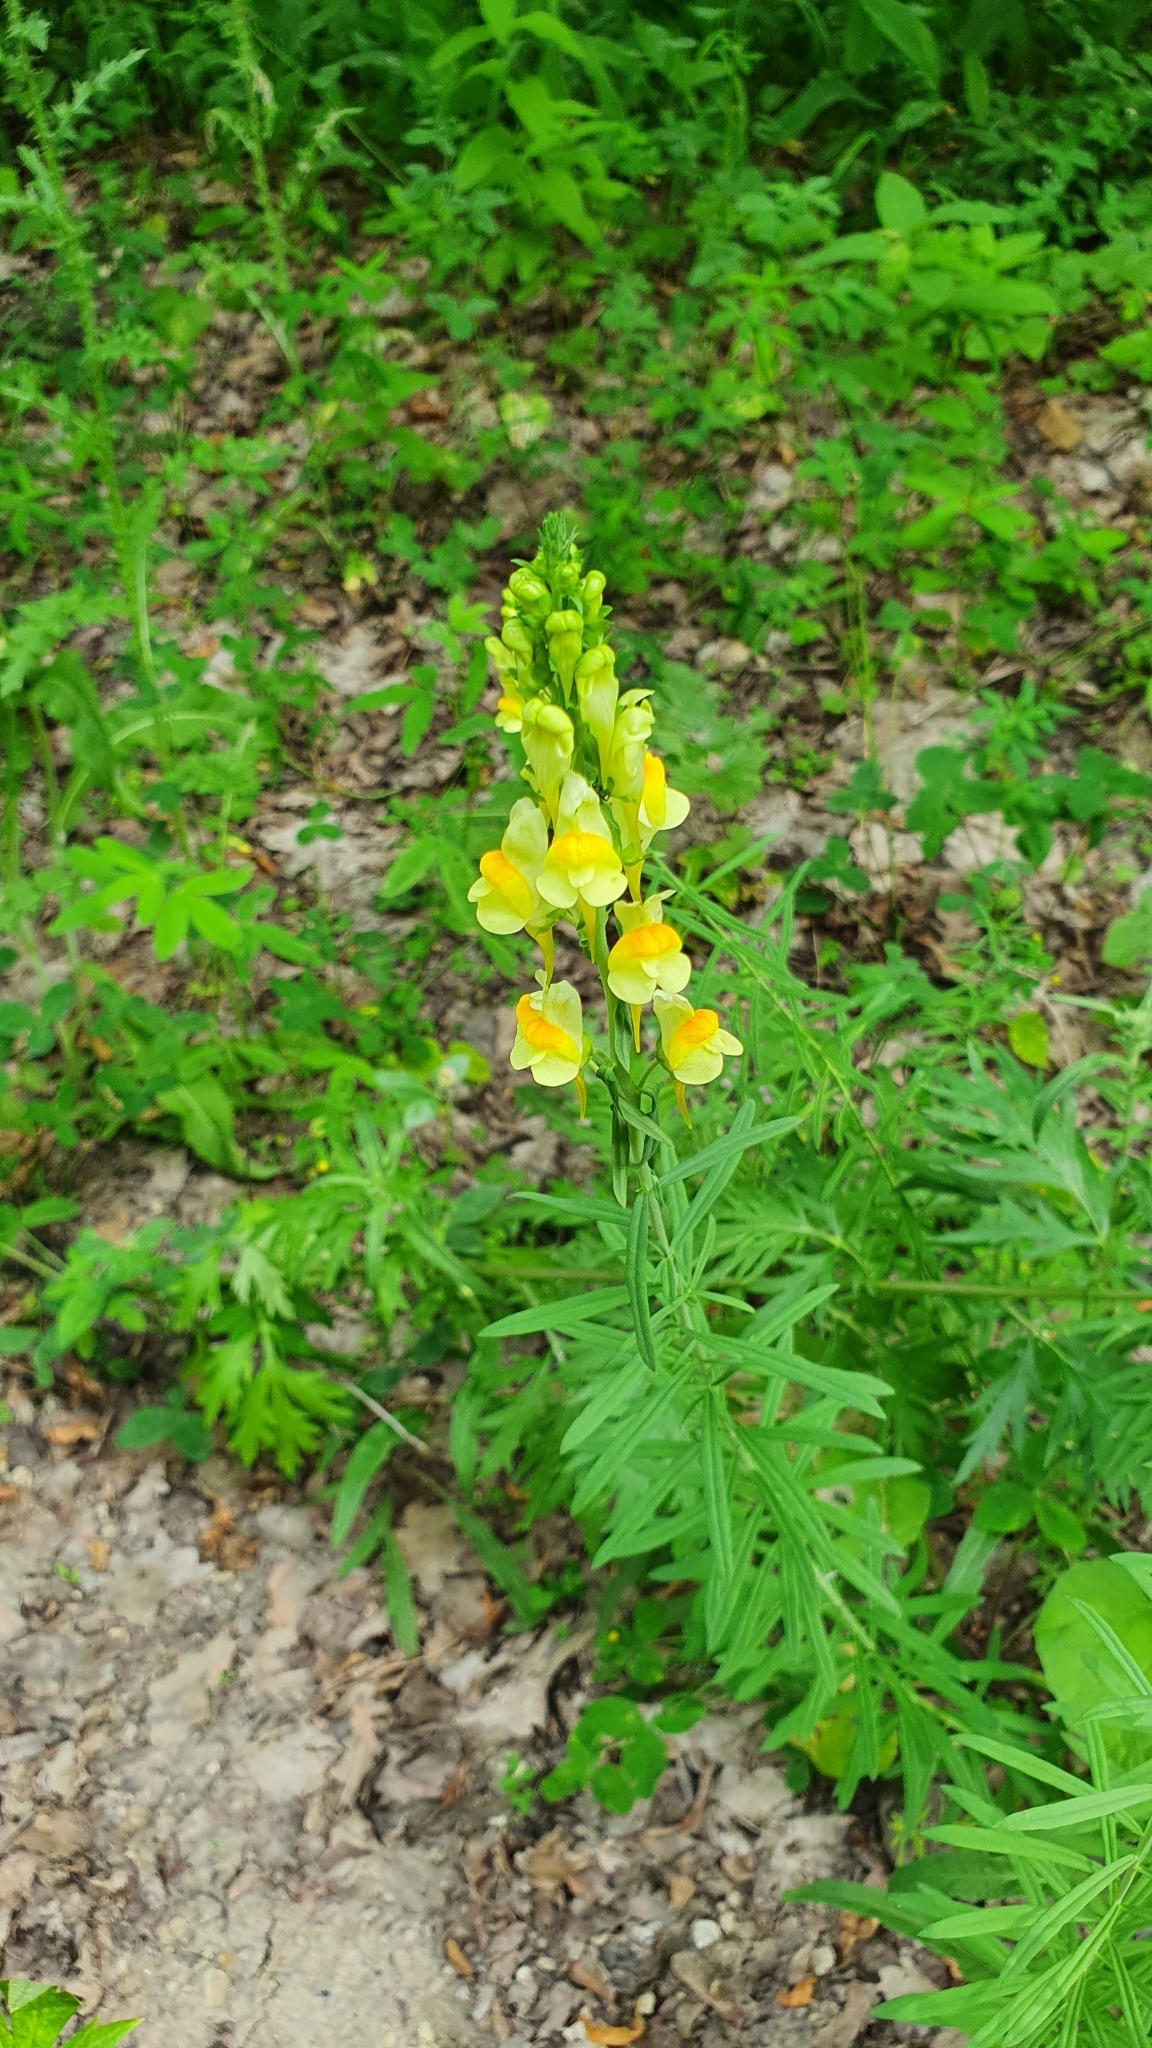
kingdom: Plantae
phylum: Tracheophyta
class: Magnoliopsida
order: Lamiales
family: Plantaginaceae
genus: Linaria
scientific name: Linaria vulgaris
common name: Butter and eggs
